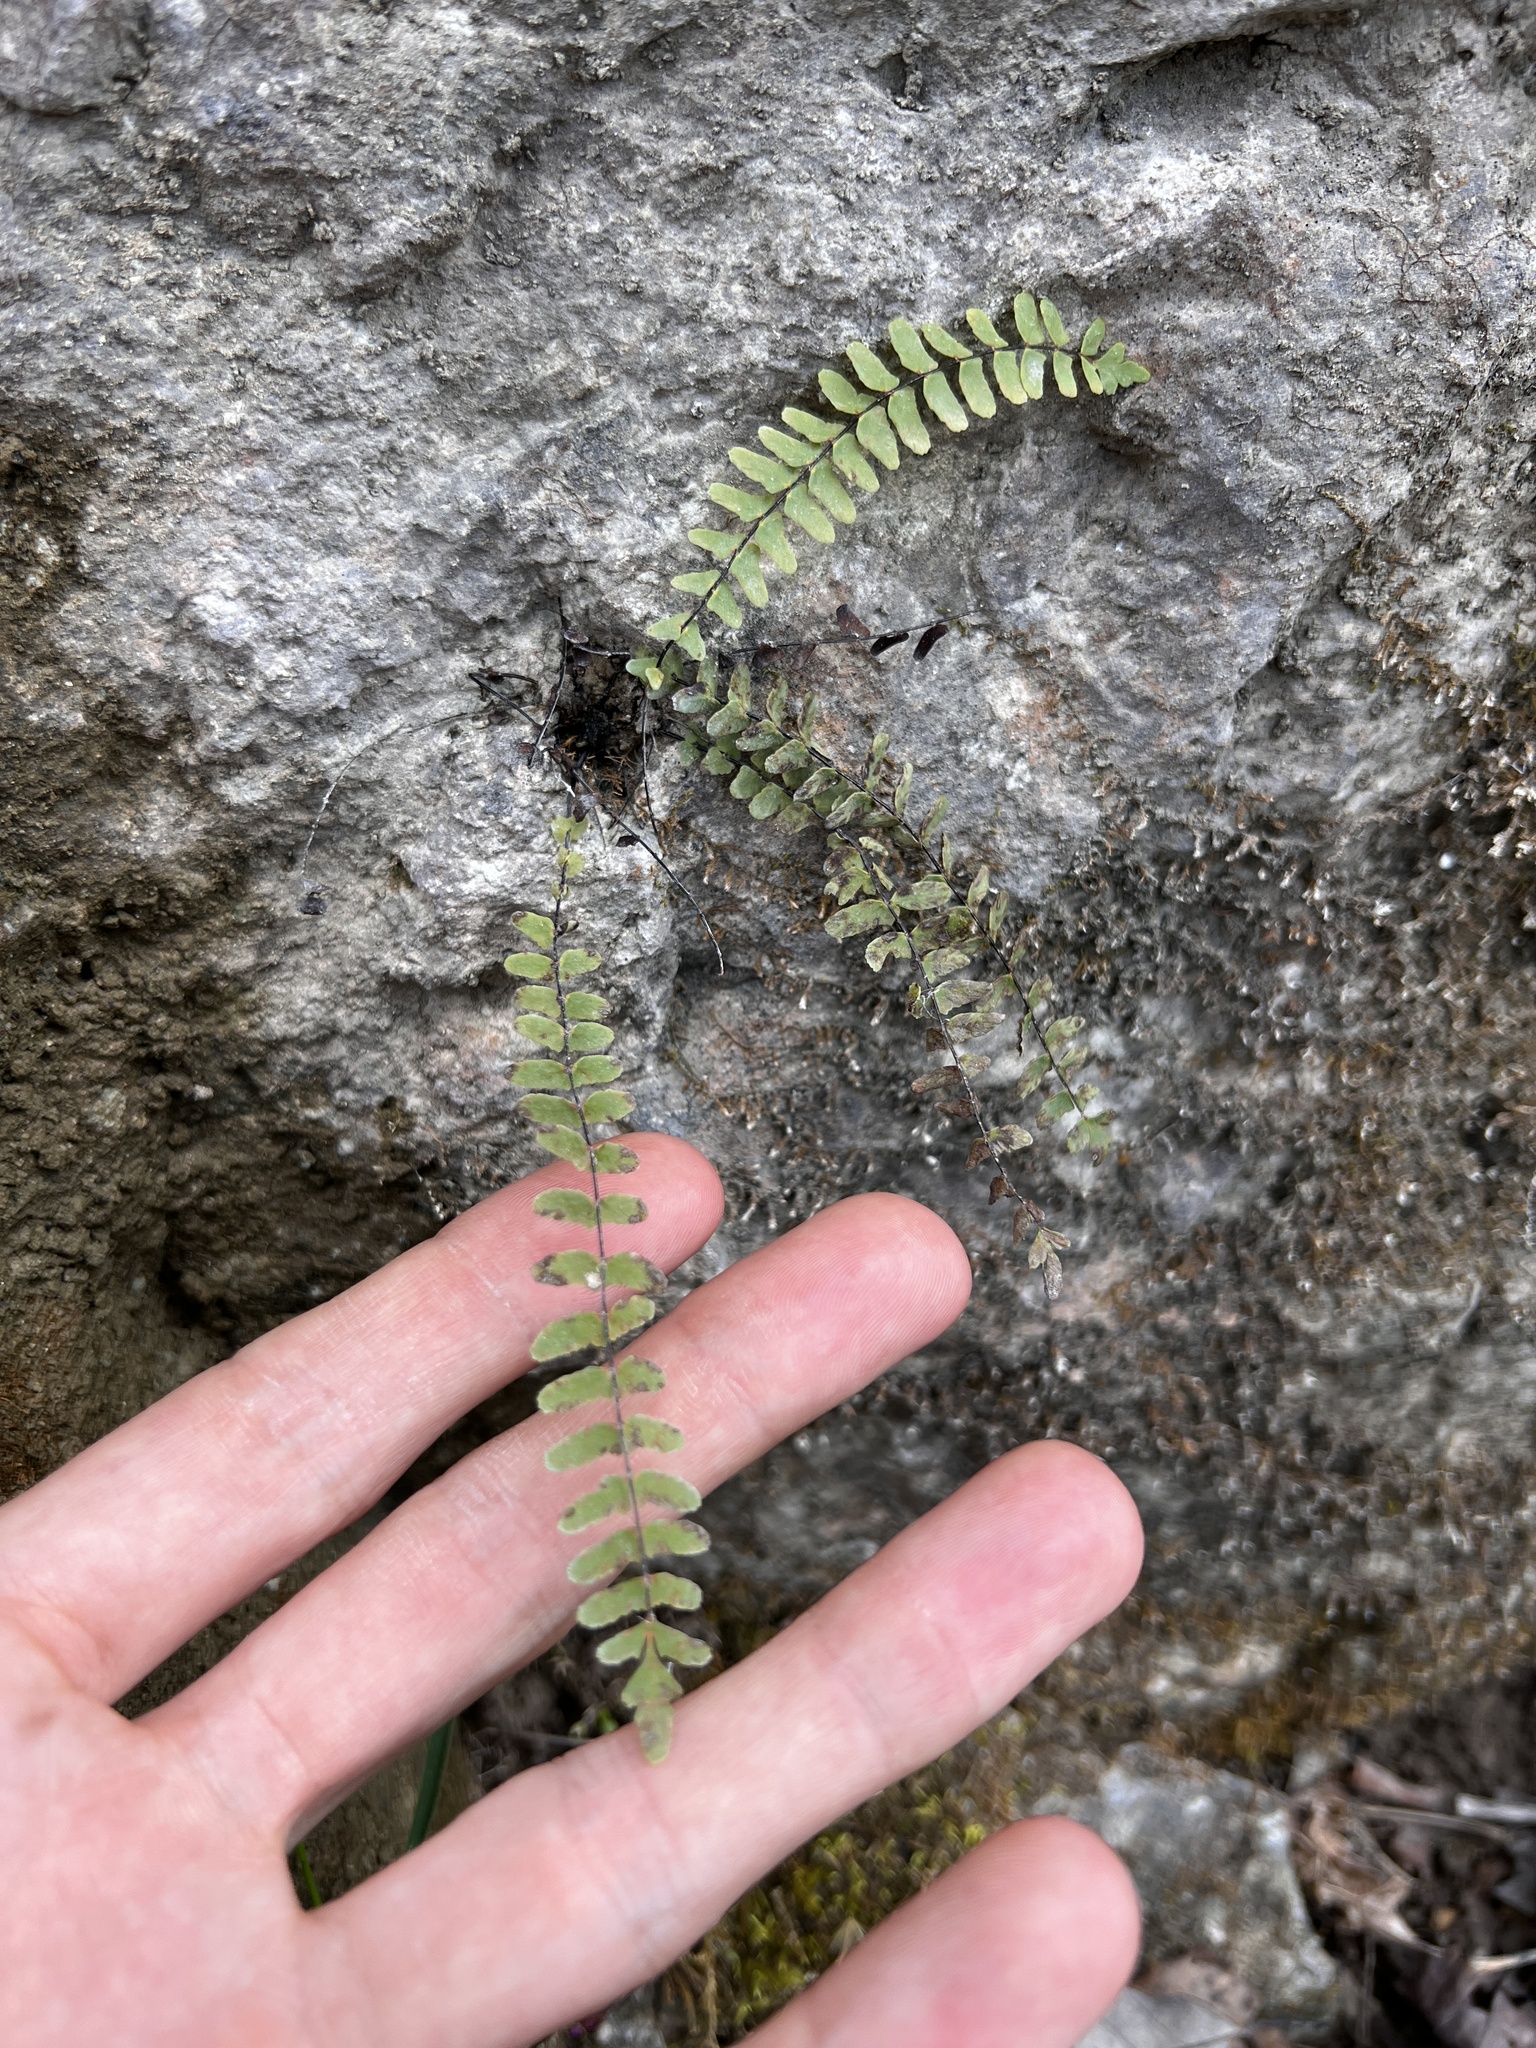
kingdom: Plantae
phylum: Tracheophyta
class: Polypodiopsida
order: Polypodiales
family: Aspleniaceae
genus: Asplenium
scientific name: Asplenium resiliens
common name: Blackstem spleenwort
